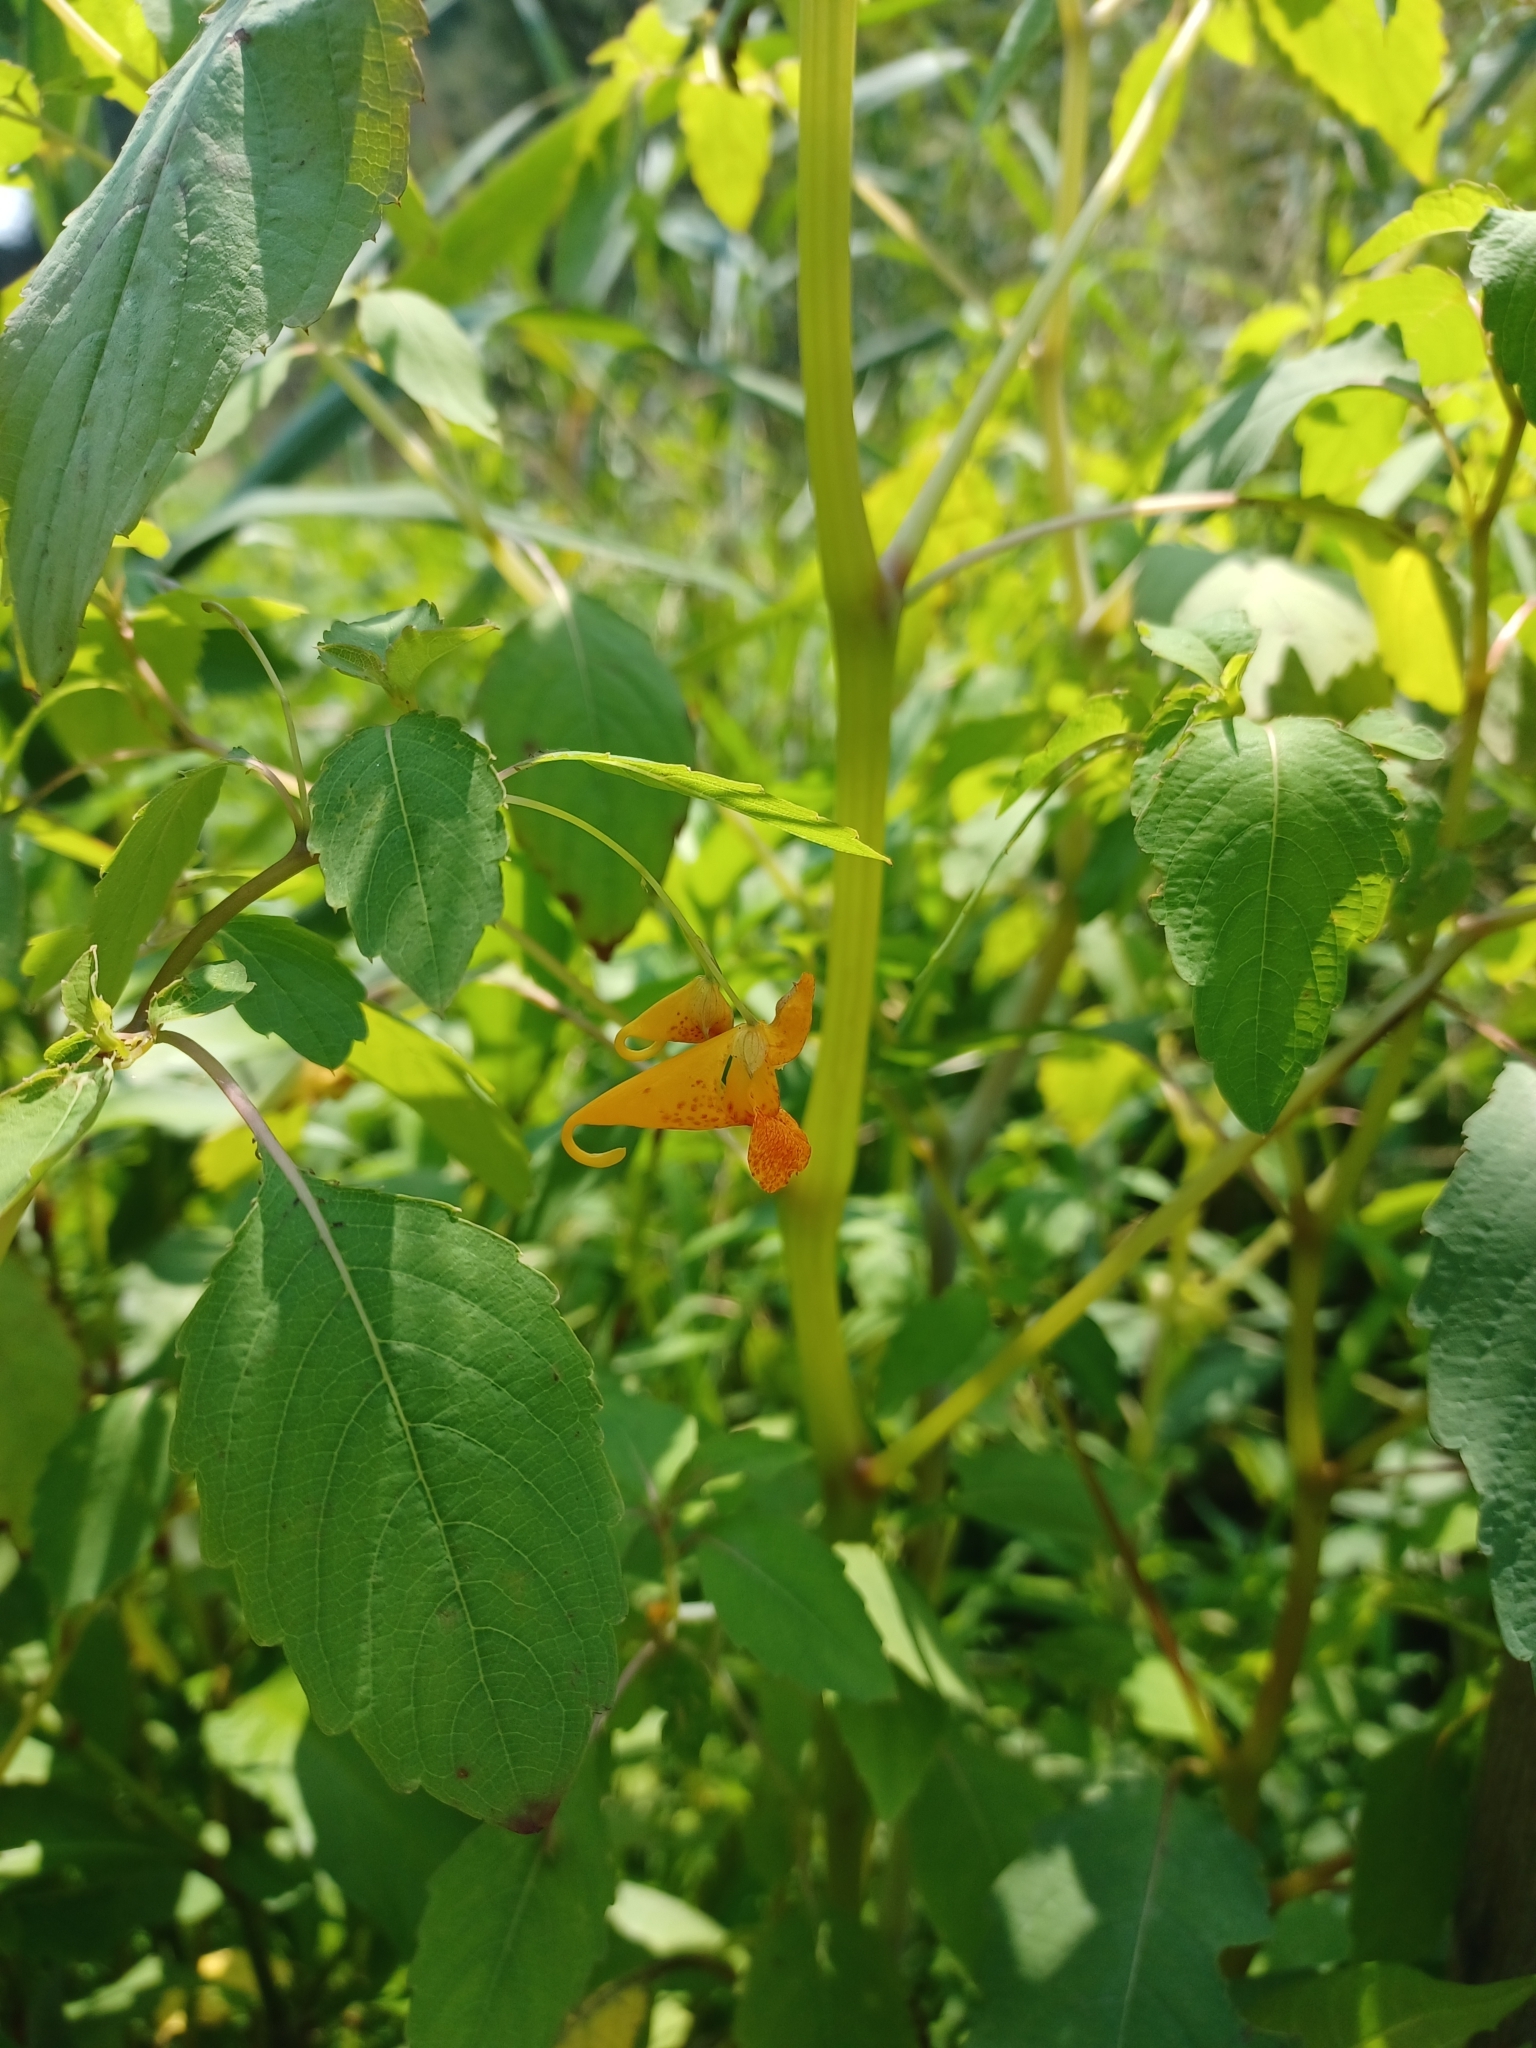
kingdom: Plantae
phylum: Tracheophyta
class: Magnoliopsida
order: Ericales
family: Balsaminaceae
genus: Impatiens
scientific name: Impatiens capensis
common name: Orange balsam
